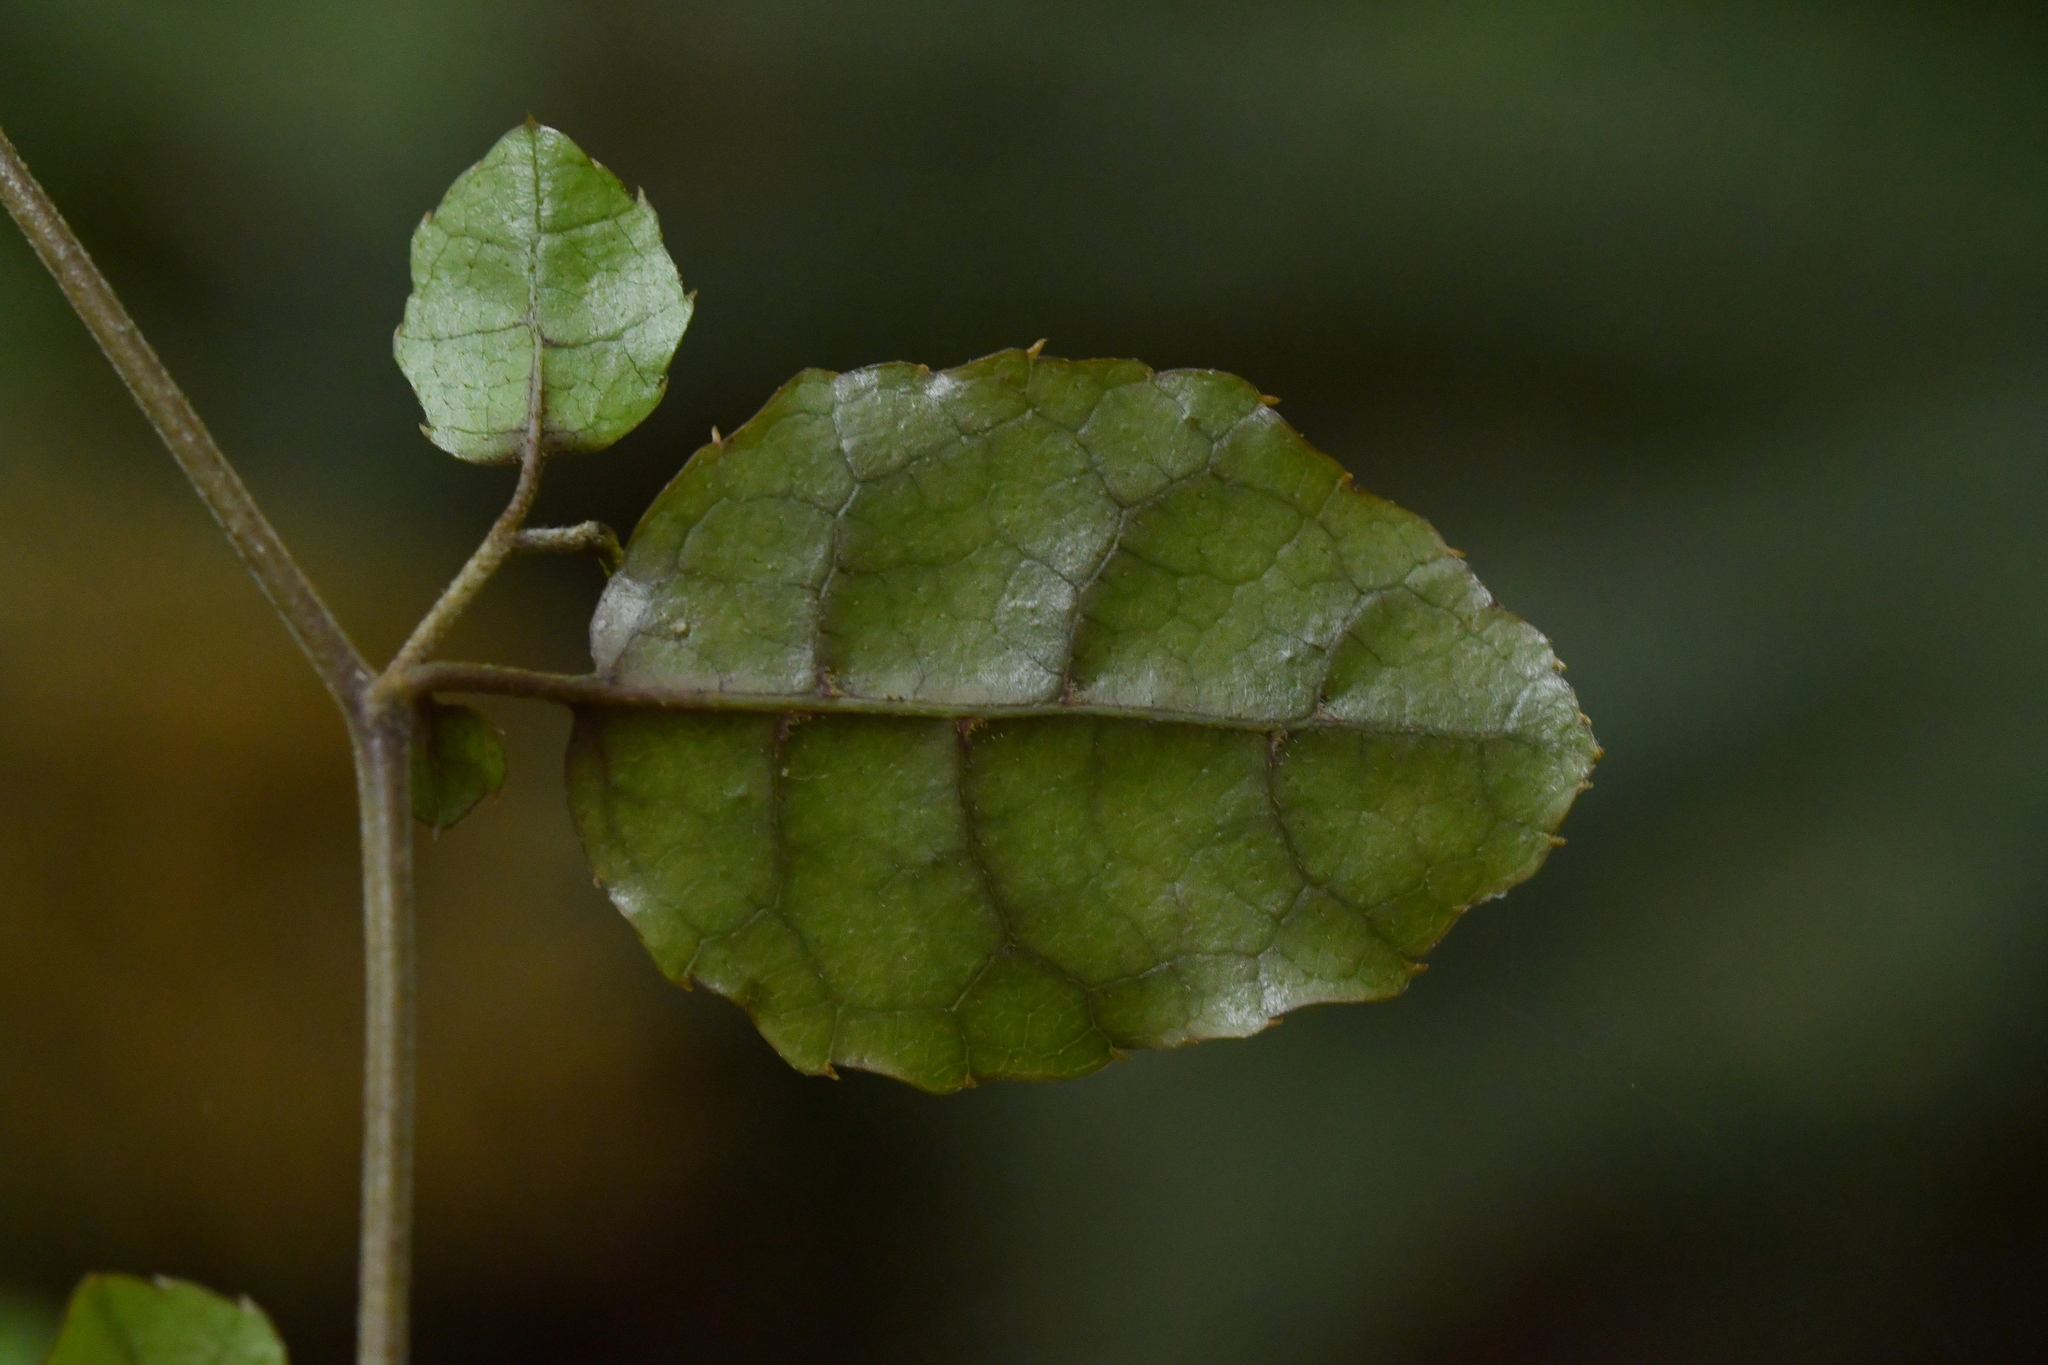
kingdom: Plantae
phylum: Tracheophyta
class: Magnoliopsida
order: Asterales
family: Rousseaceae
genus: Carpodetus
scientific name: Carpodetus serratus
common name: White mapau
